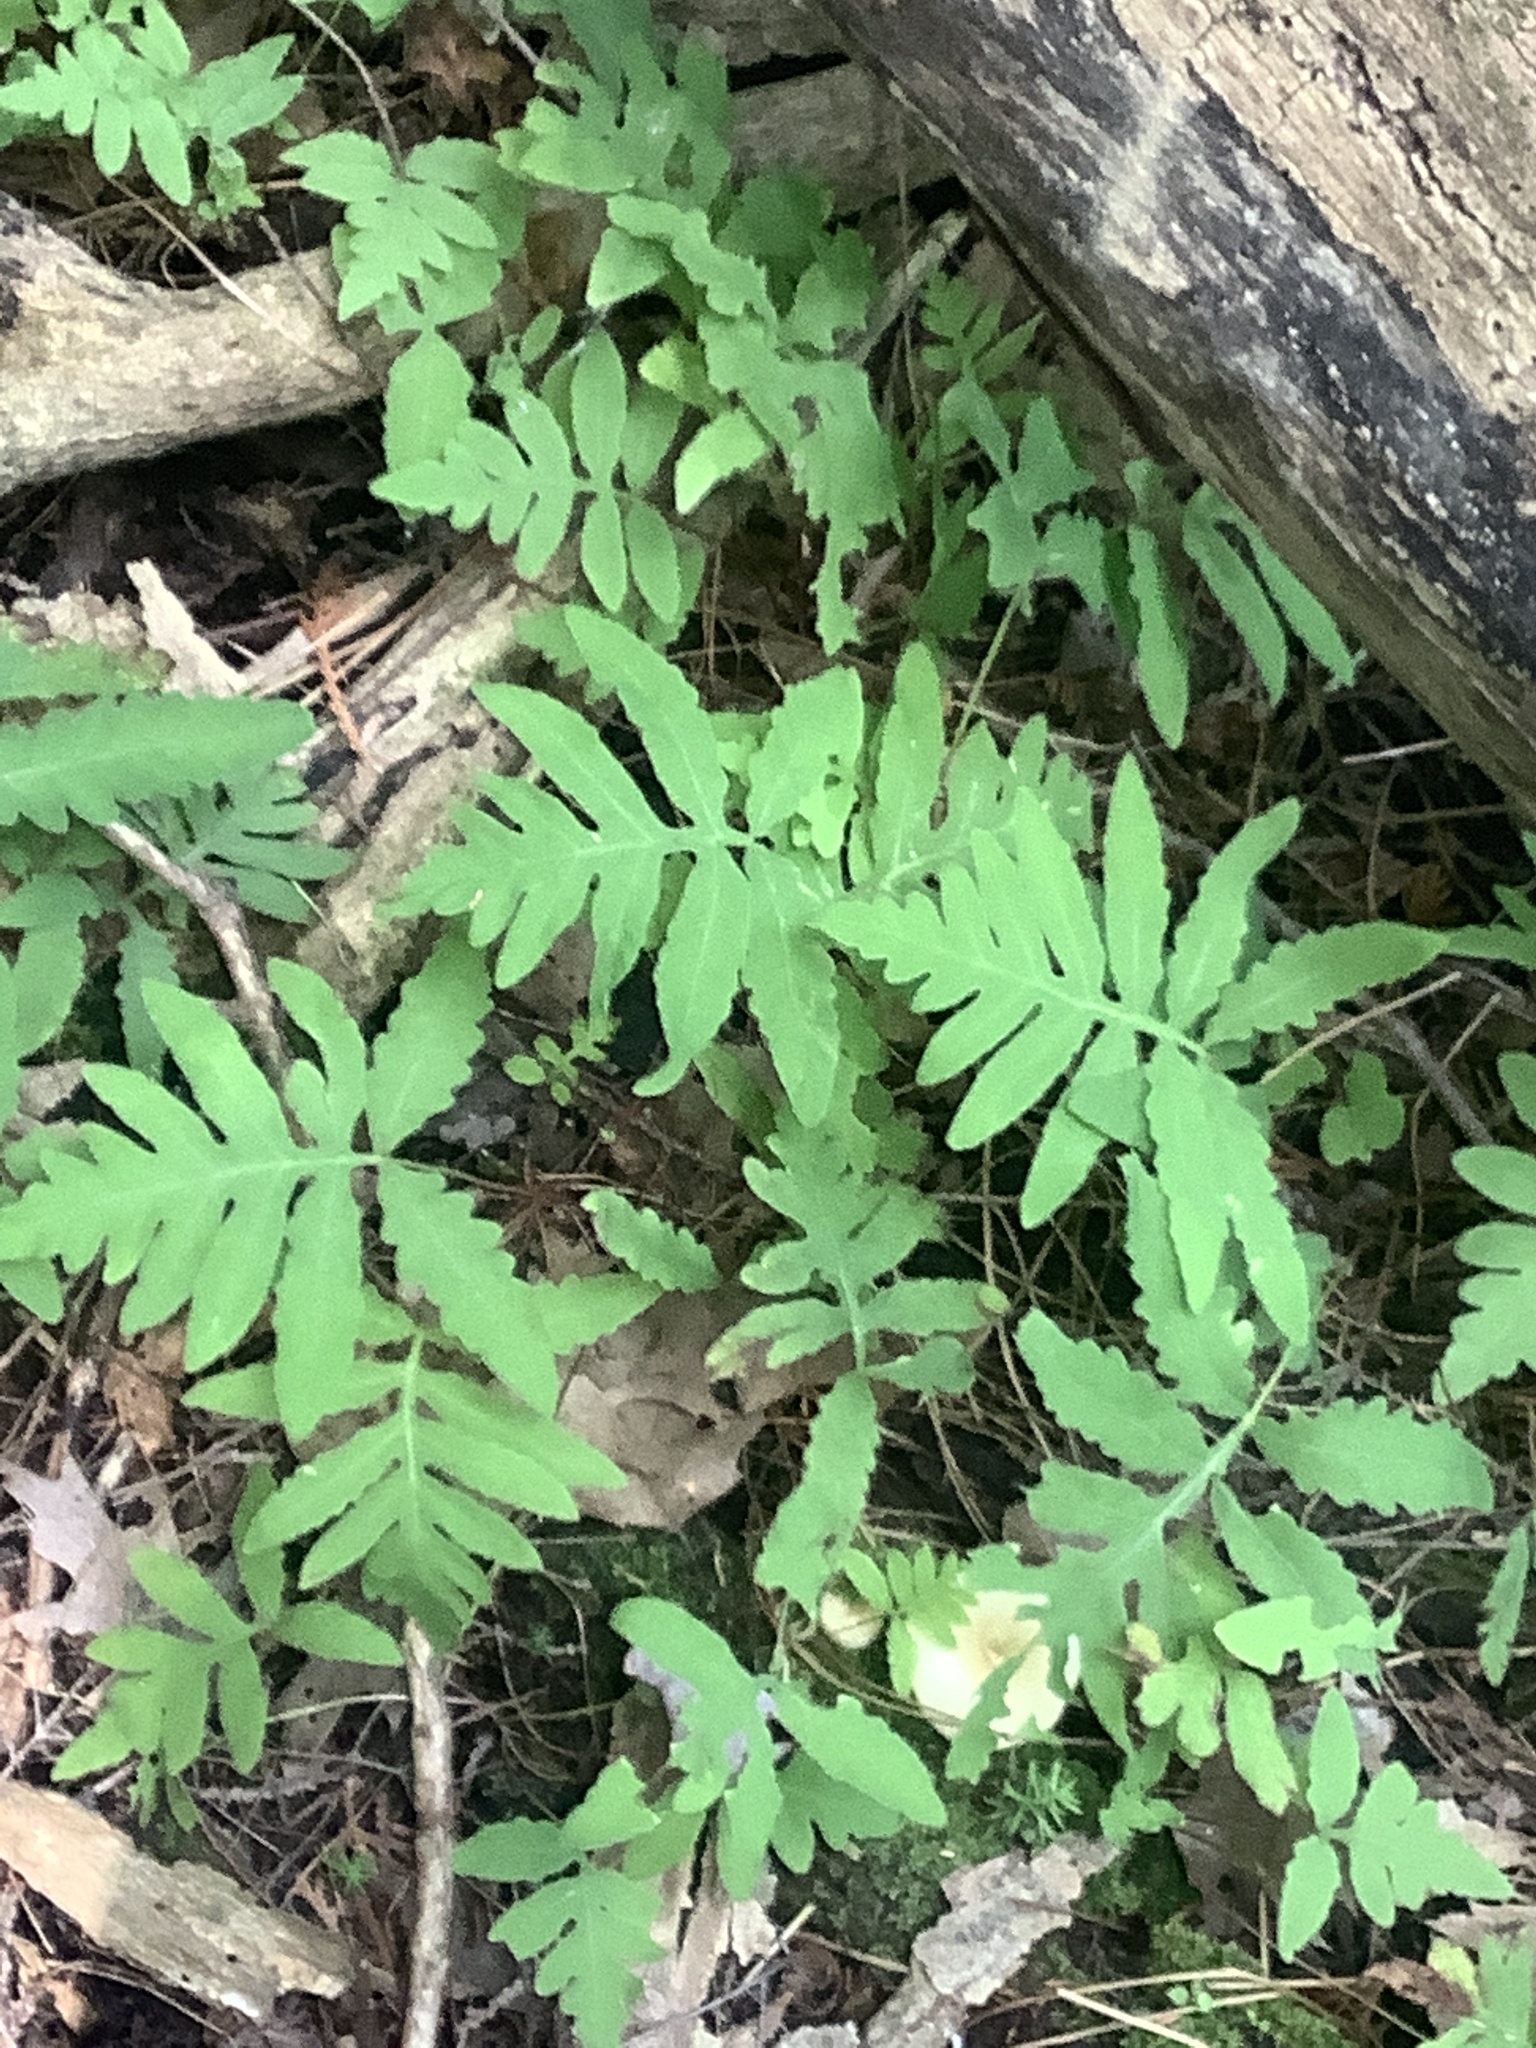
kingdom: Plantae
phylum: Tracheophyta
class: Polypodiopsida
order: Polypodiales
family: Onocleaceae
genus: Onoclea
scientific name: Onoclea sensibilis
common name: Sensitive fern
